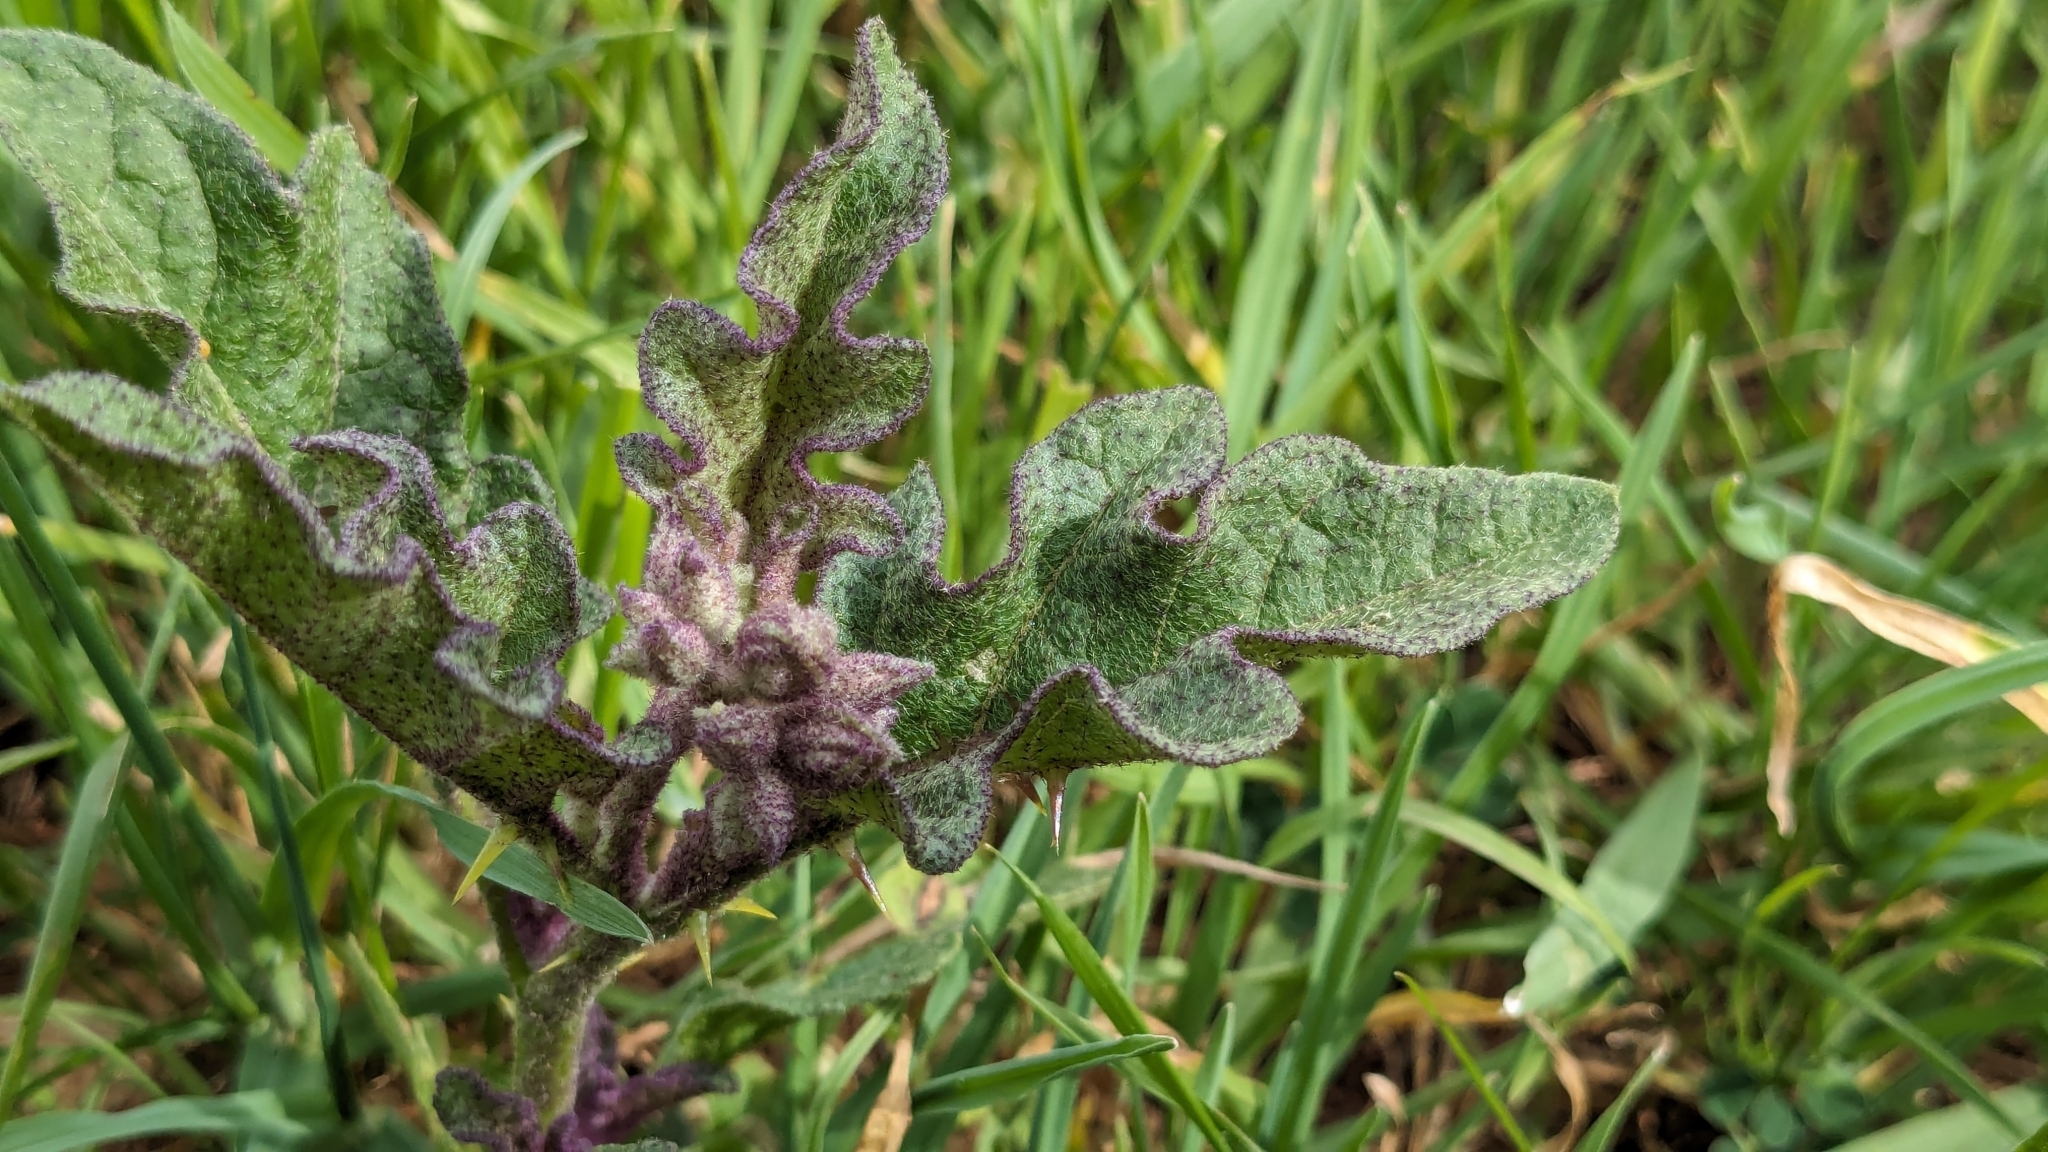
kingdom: Plantae
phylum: Tracheophyta
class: Magnoliopsida
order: Solanales
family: Solanaceae
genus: Solanum
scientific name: Solanum dimidiatum
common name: Carolina horse-nettle
